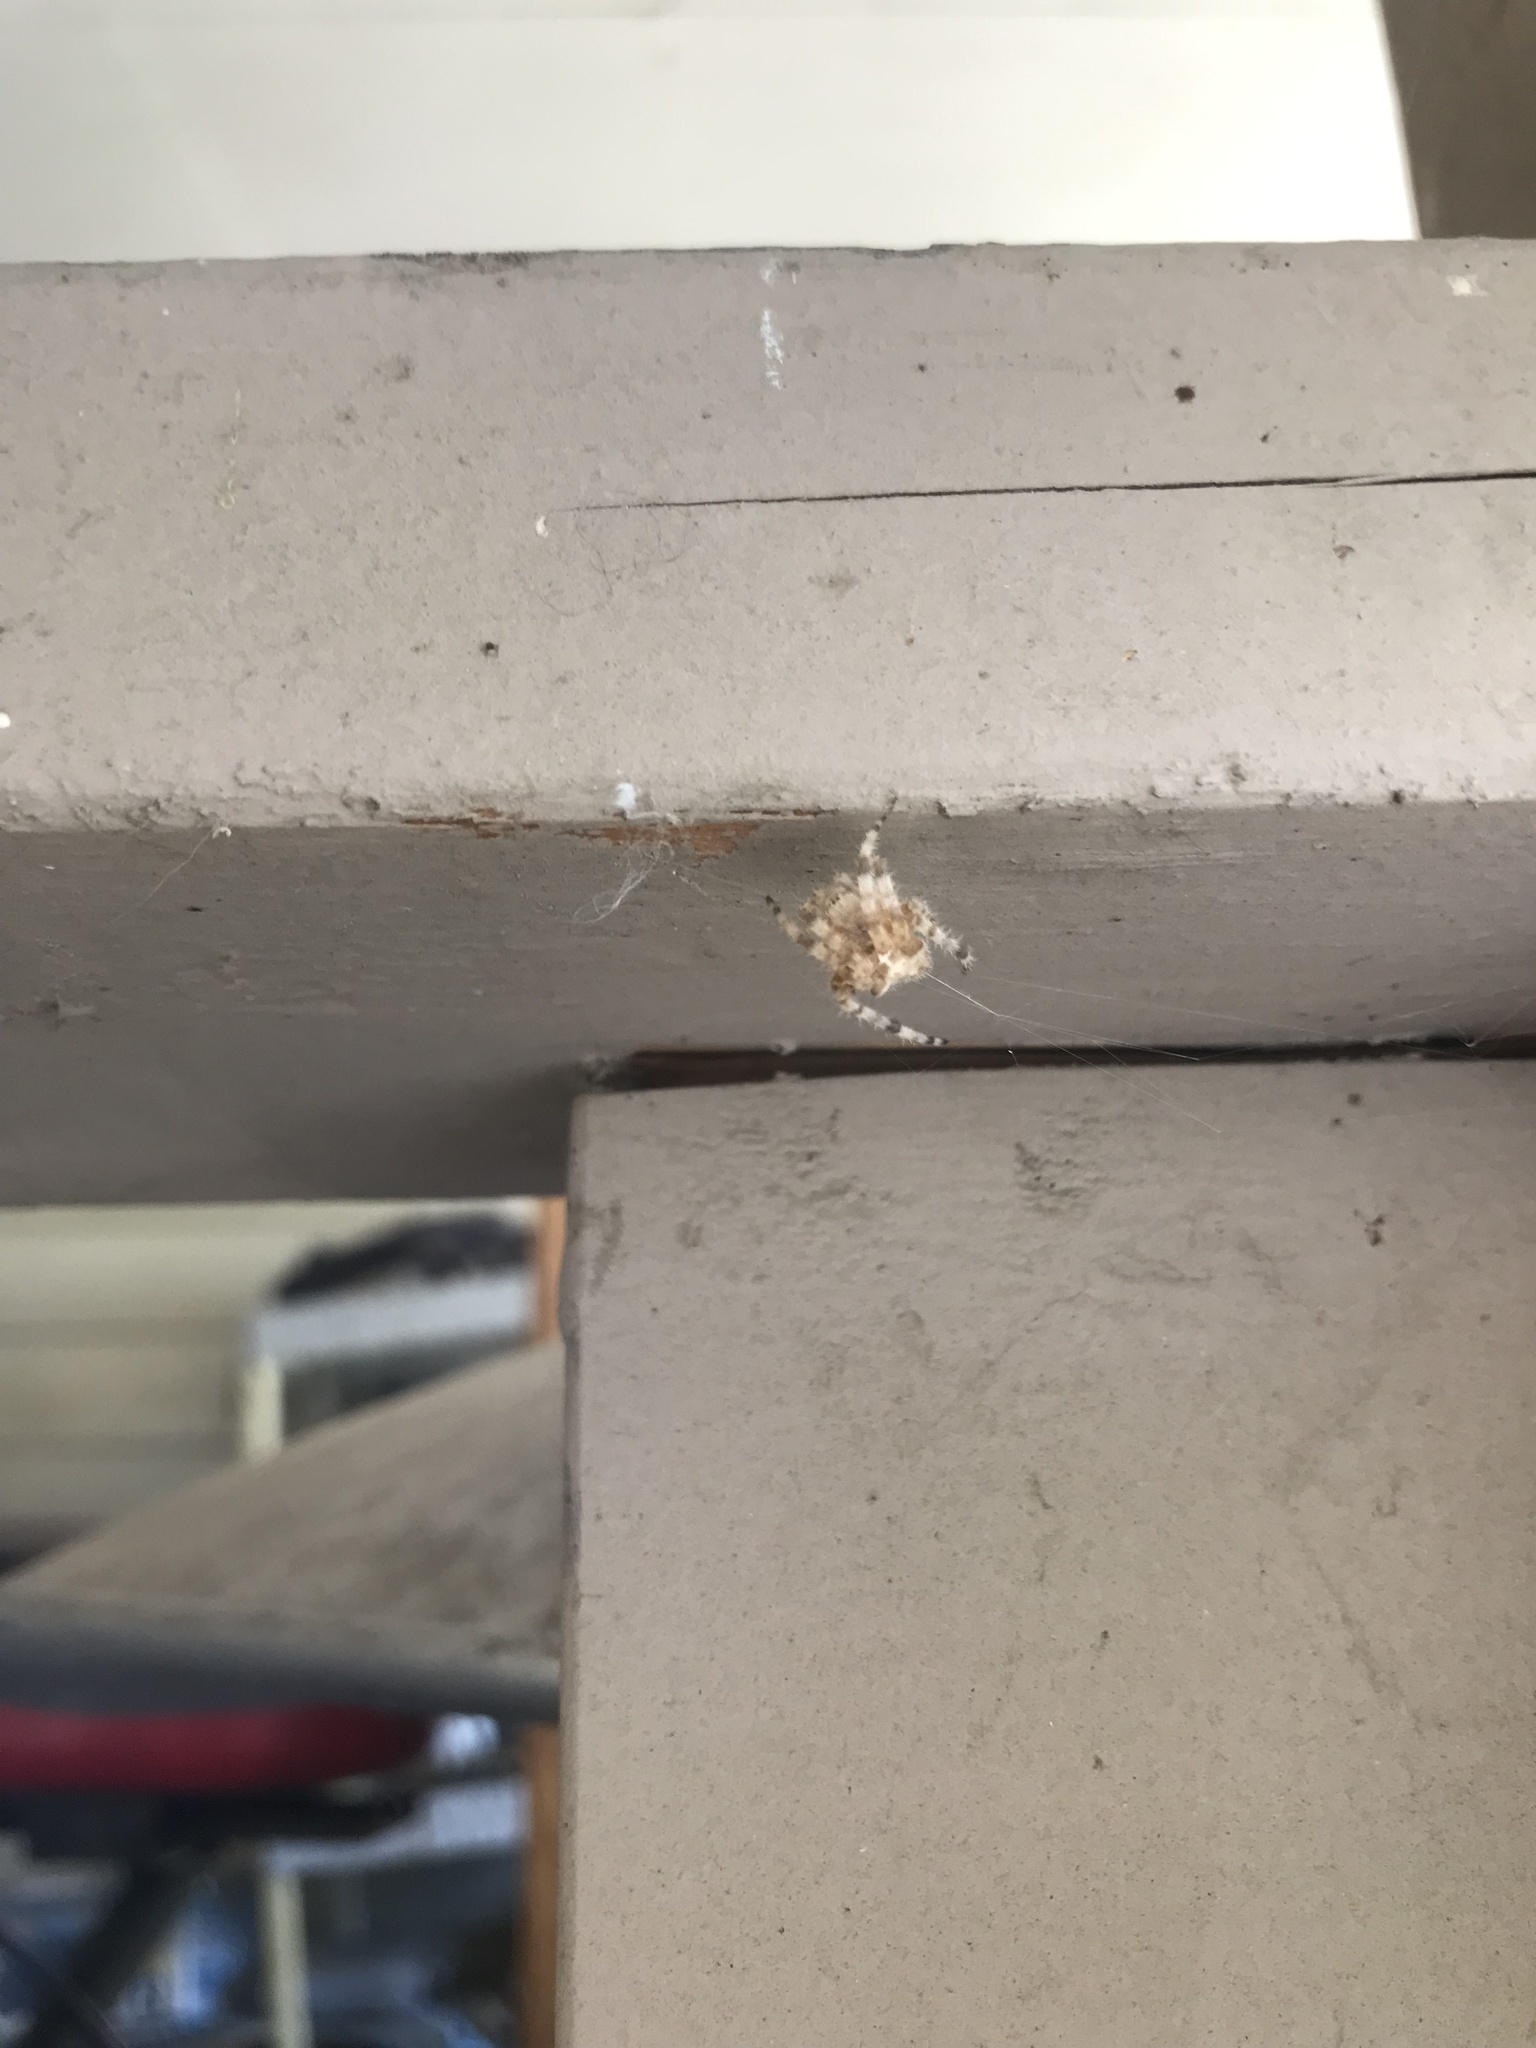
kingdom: Animalia
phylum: Arthropoda
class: Arachnida
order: Araneae
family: Araneidae
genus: Araneus
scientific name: Araneus gemmoides
